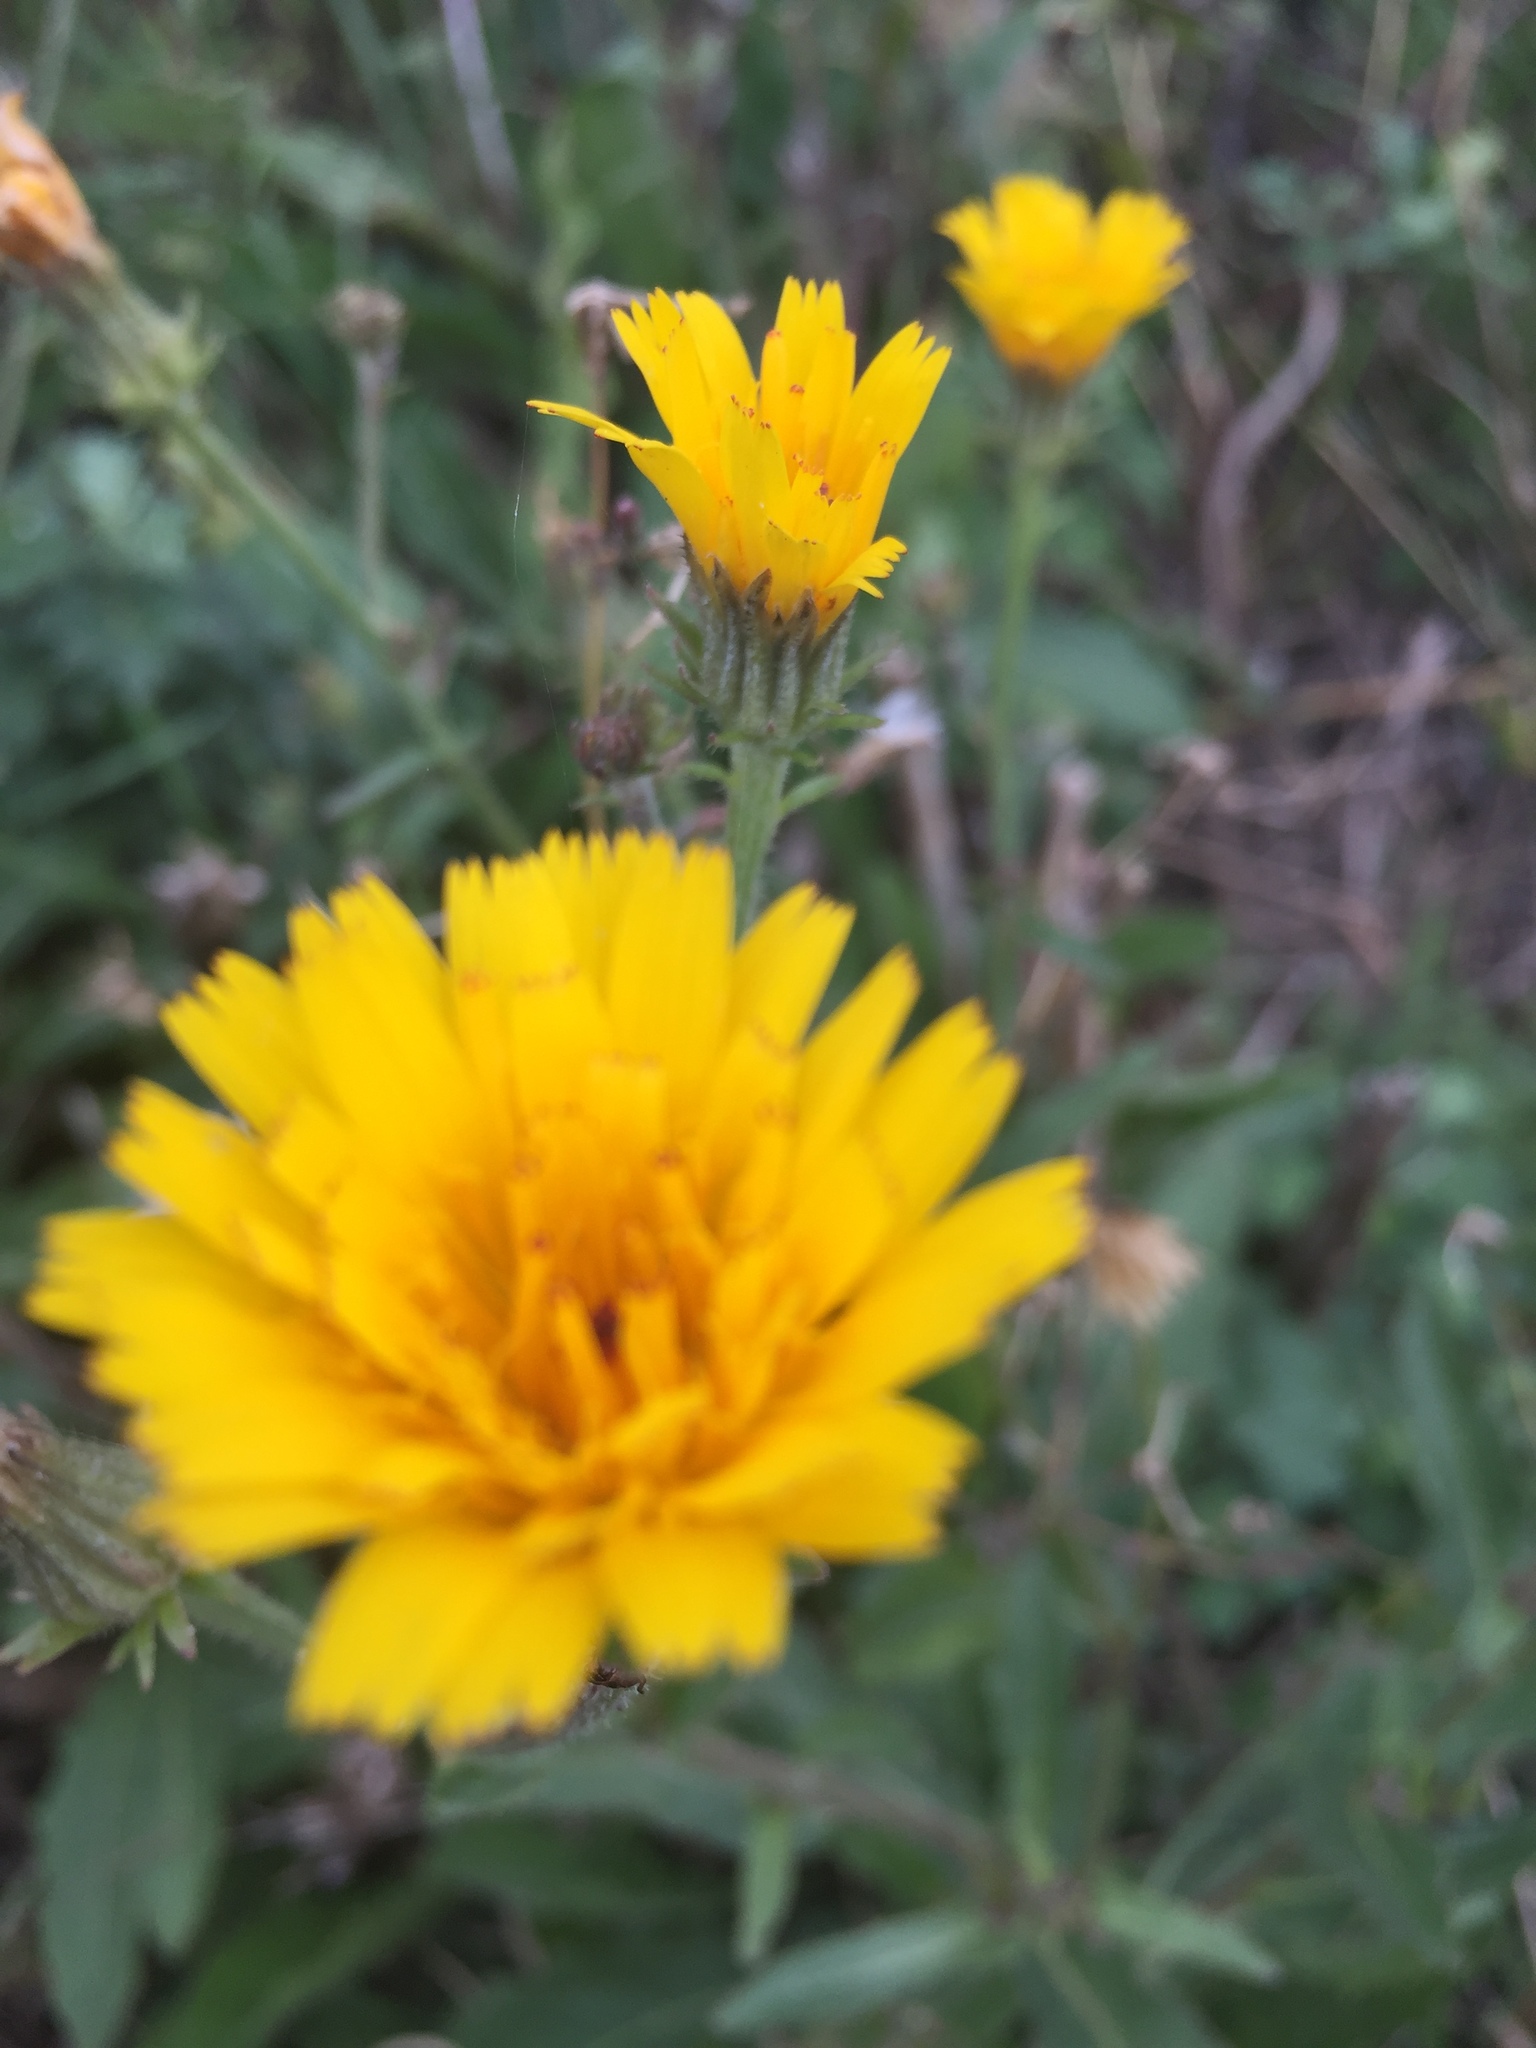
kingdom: Plantae
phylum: Tracheophyta
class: Magnoliopsida
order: Asterales
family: Asteraceae
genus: Picris
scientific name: Picris hieracioides
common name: Hawkweed oxtongue
